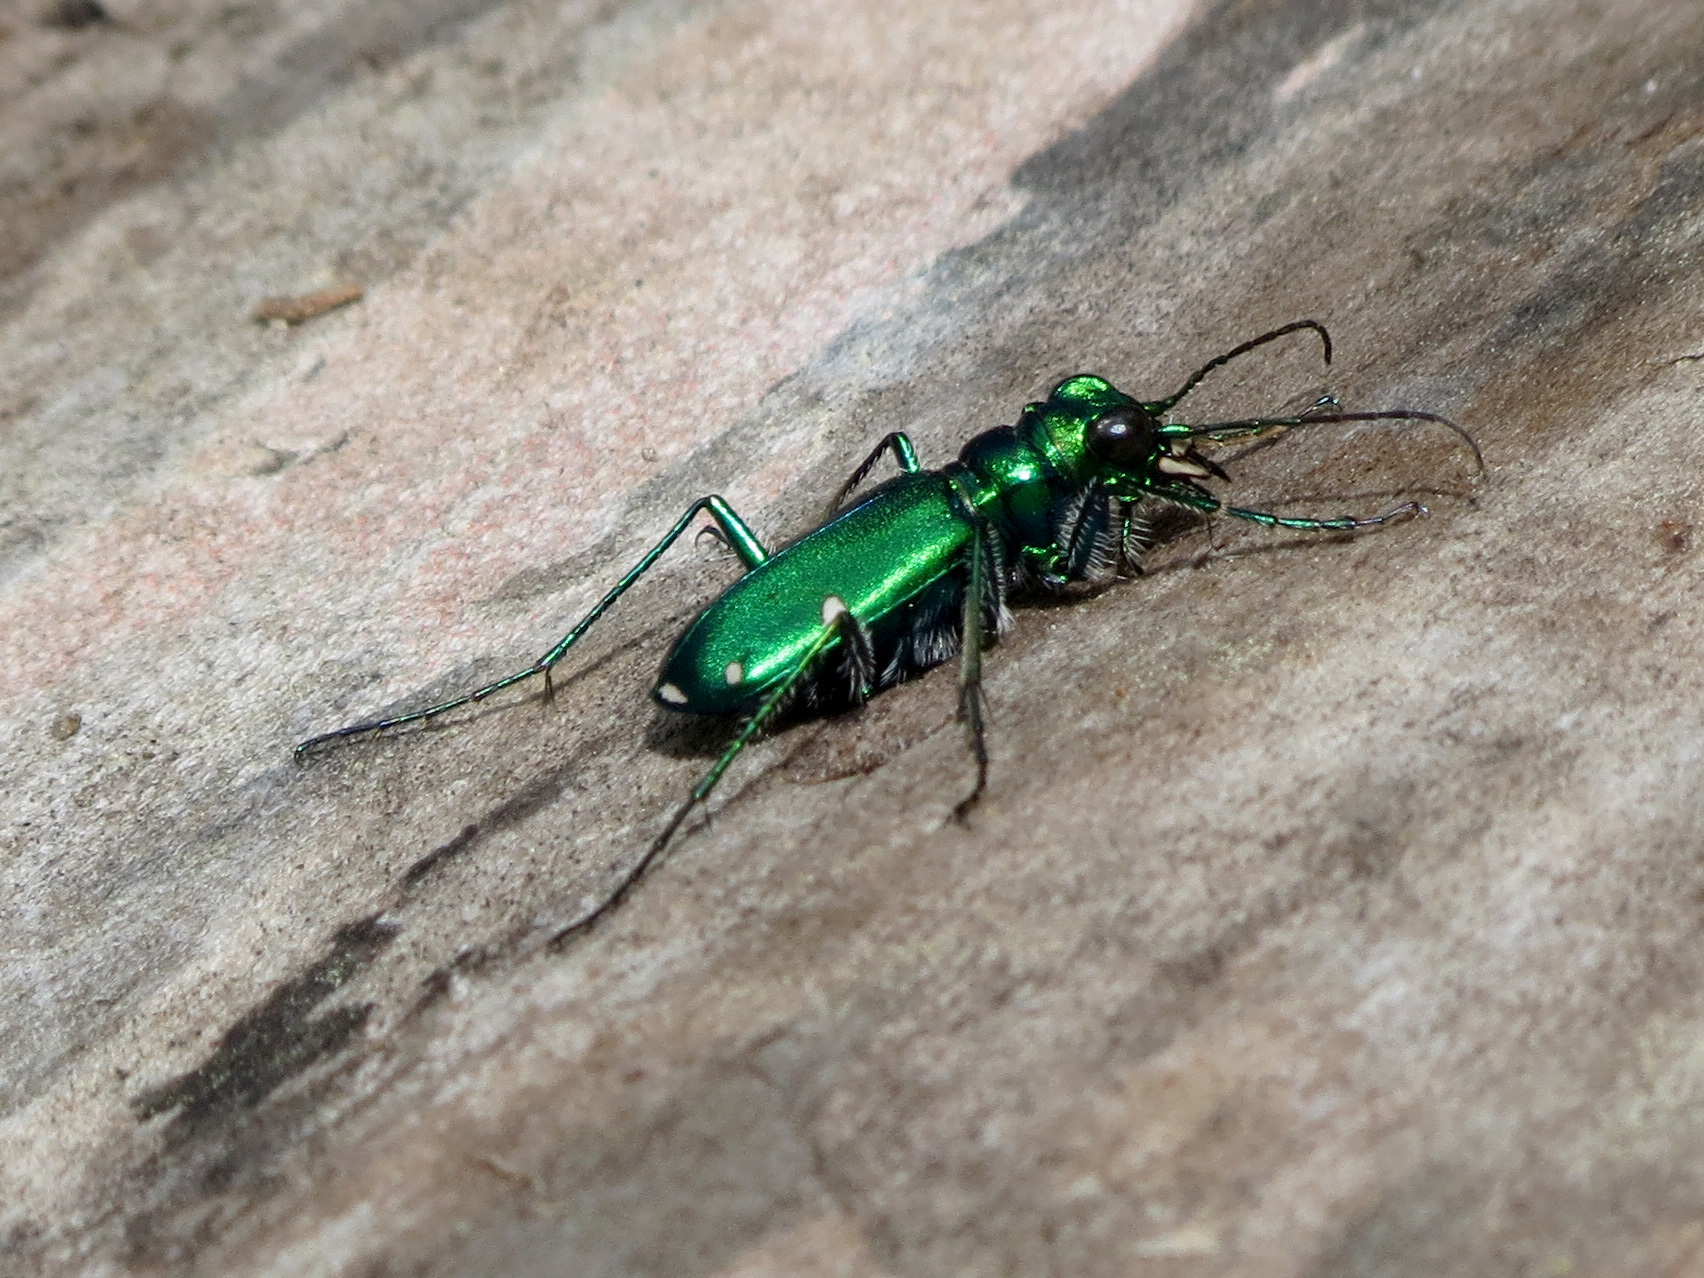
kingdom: Animalia
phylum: Arthropoda
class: Insecta
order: Coleoptera
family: Carabidae
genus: Cicindela
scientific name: Cicindela sexguttata
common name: Six-spotted tiger beetle
